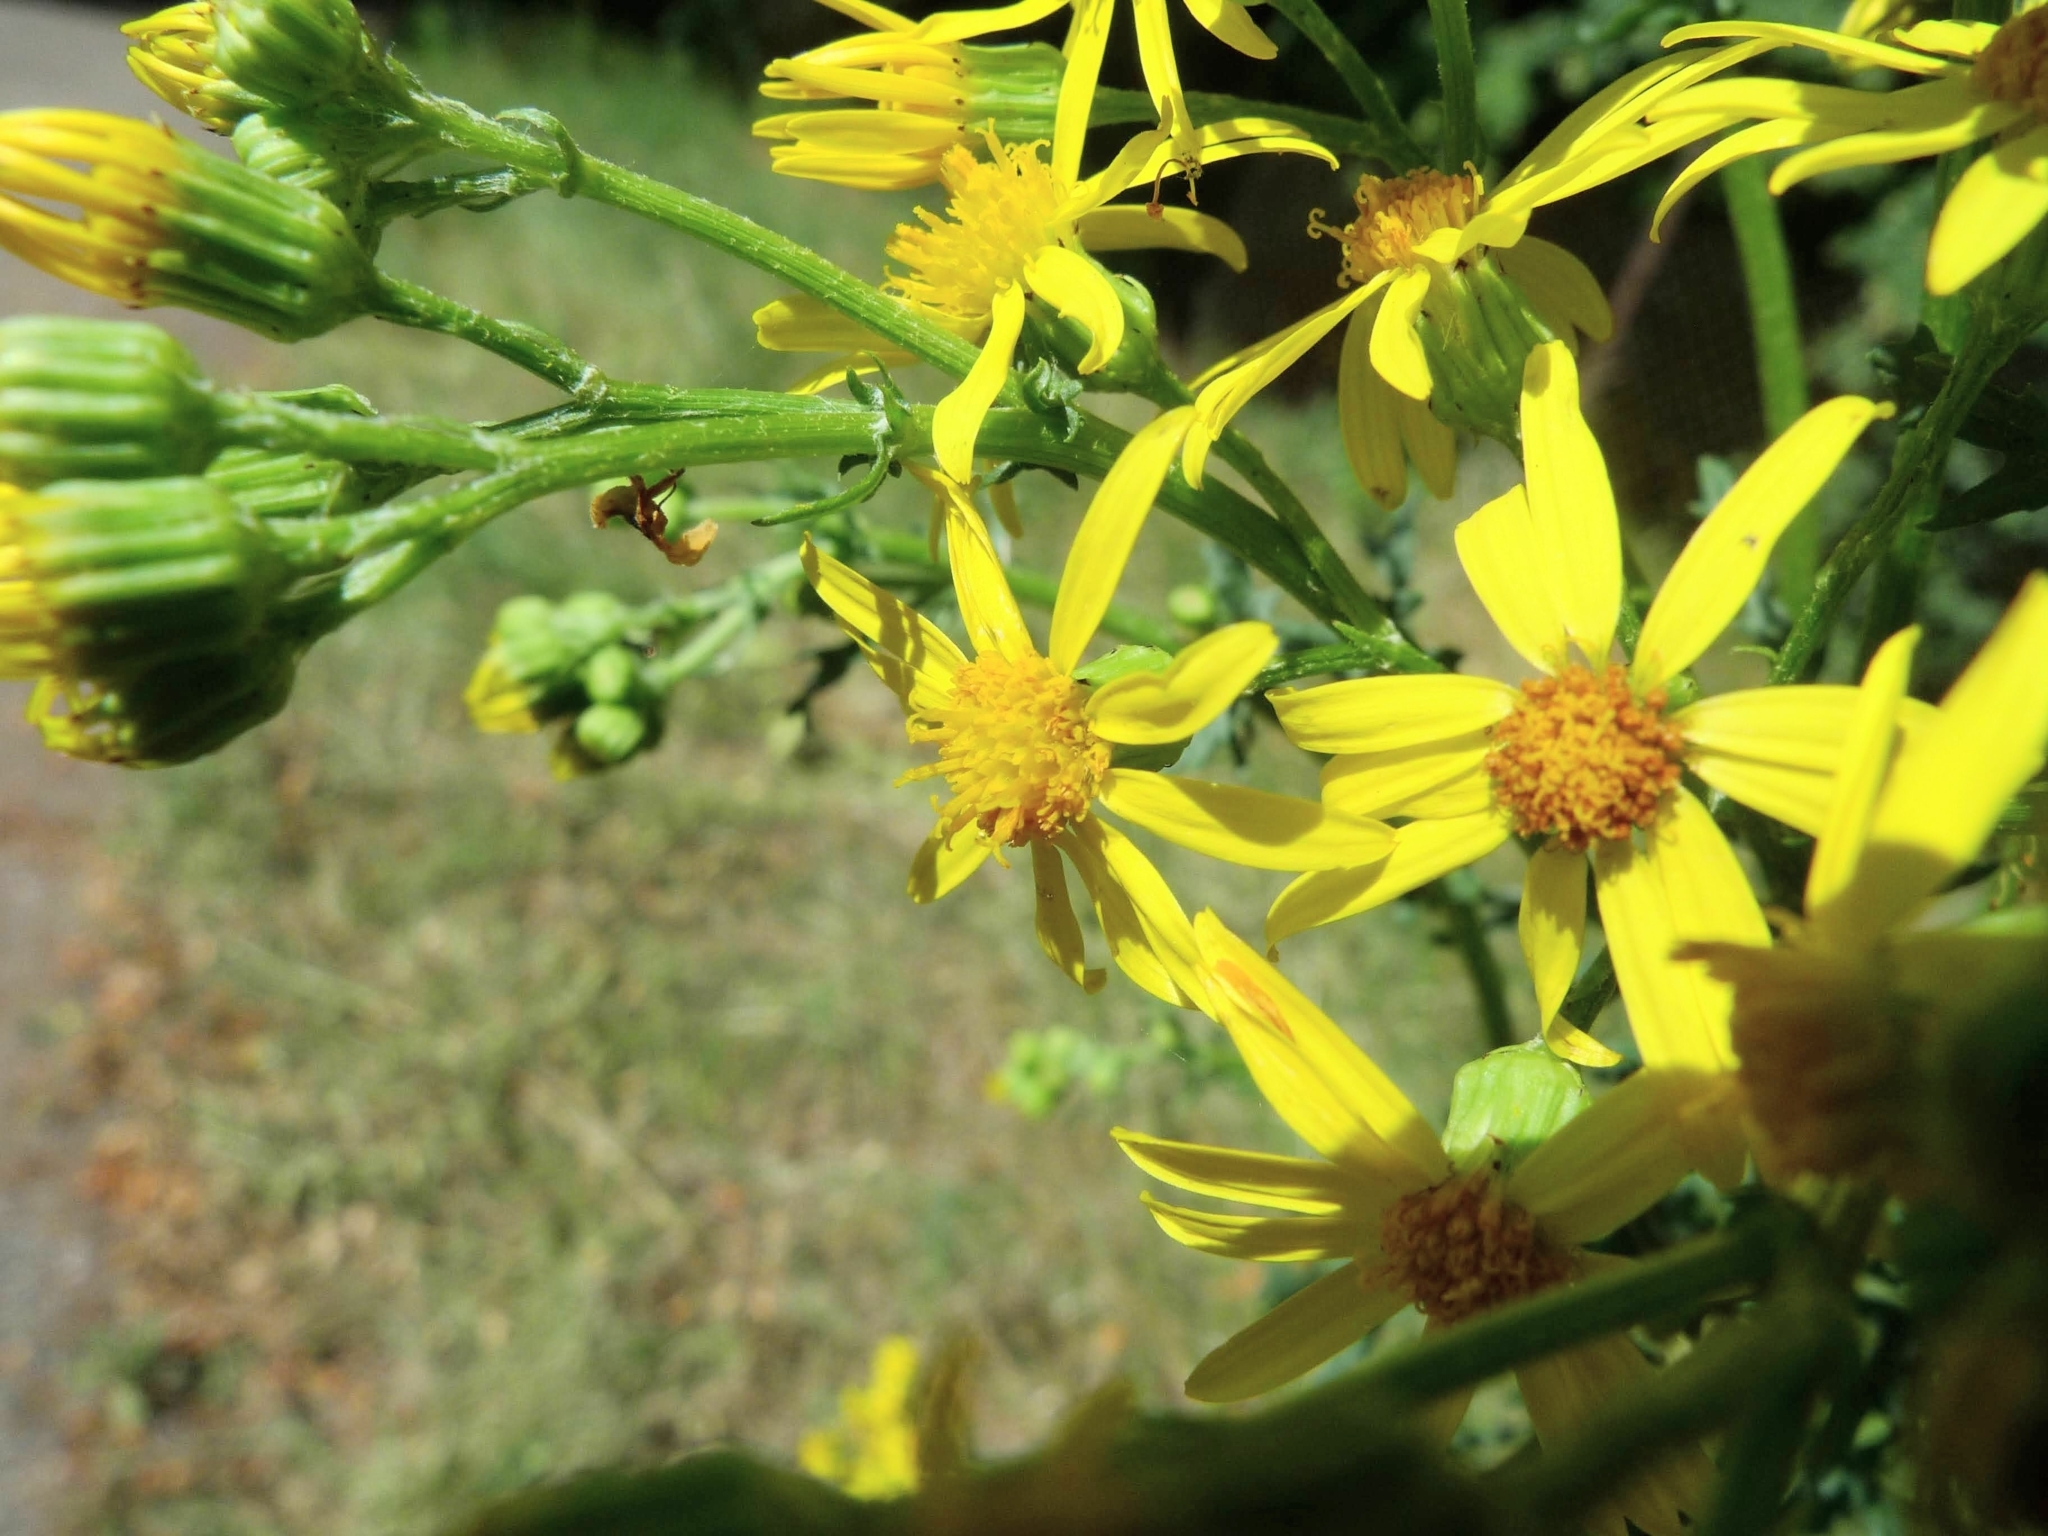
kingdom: Plantae
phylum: Tracheophyta
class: Magnoliopsida
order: Asterales
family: Asteraceae
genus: Jacobaea
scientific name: Jacobaea vulgaris
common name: Stinking willie
